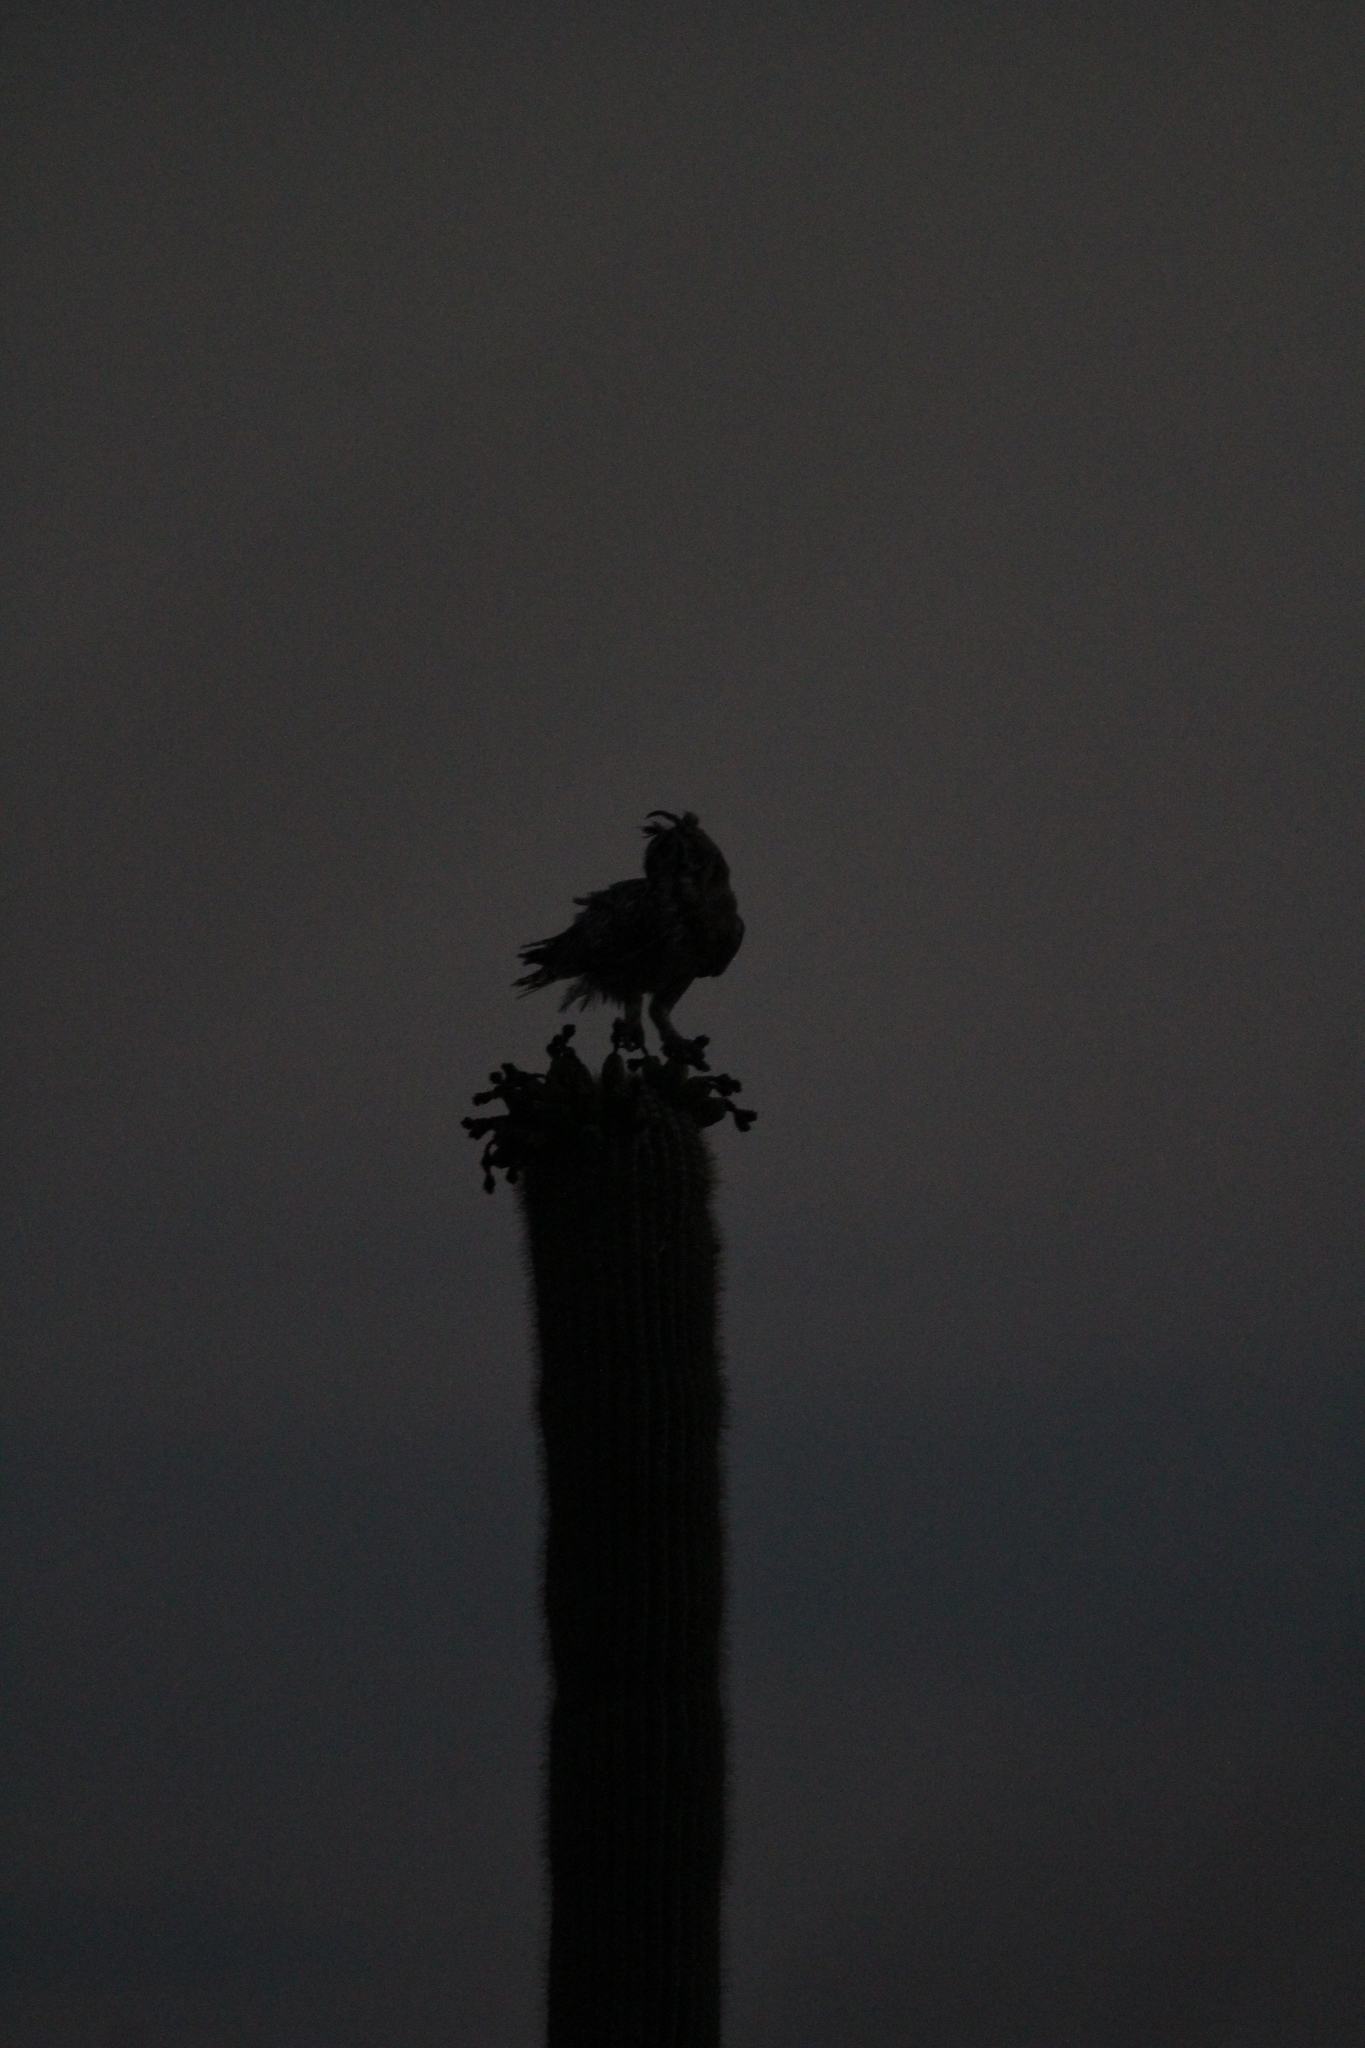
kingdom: Animalia
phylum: Chordata
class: Aves
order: Strigiformes
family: Strigidae
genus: Bubo
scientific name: Bubo virginianus
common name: Great horned owl
